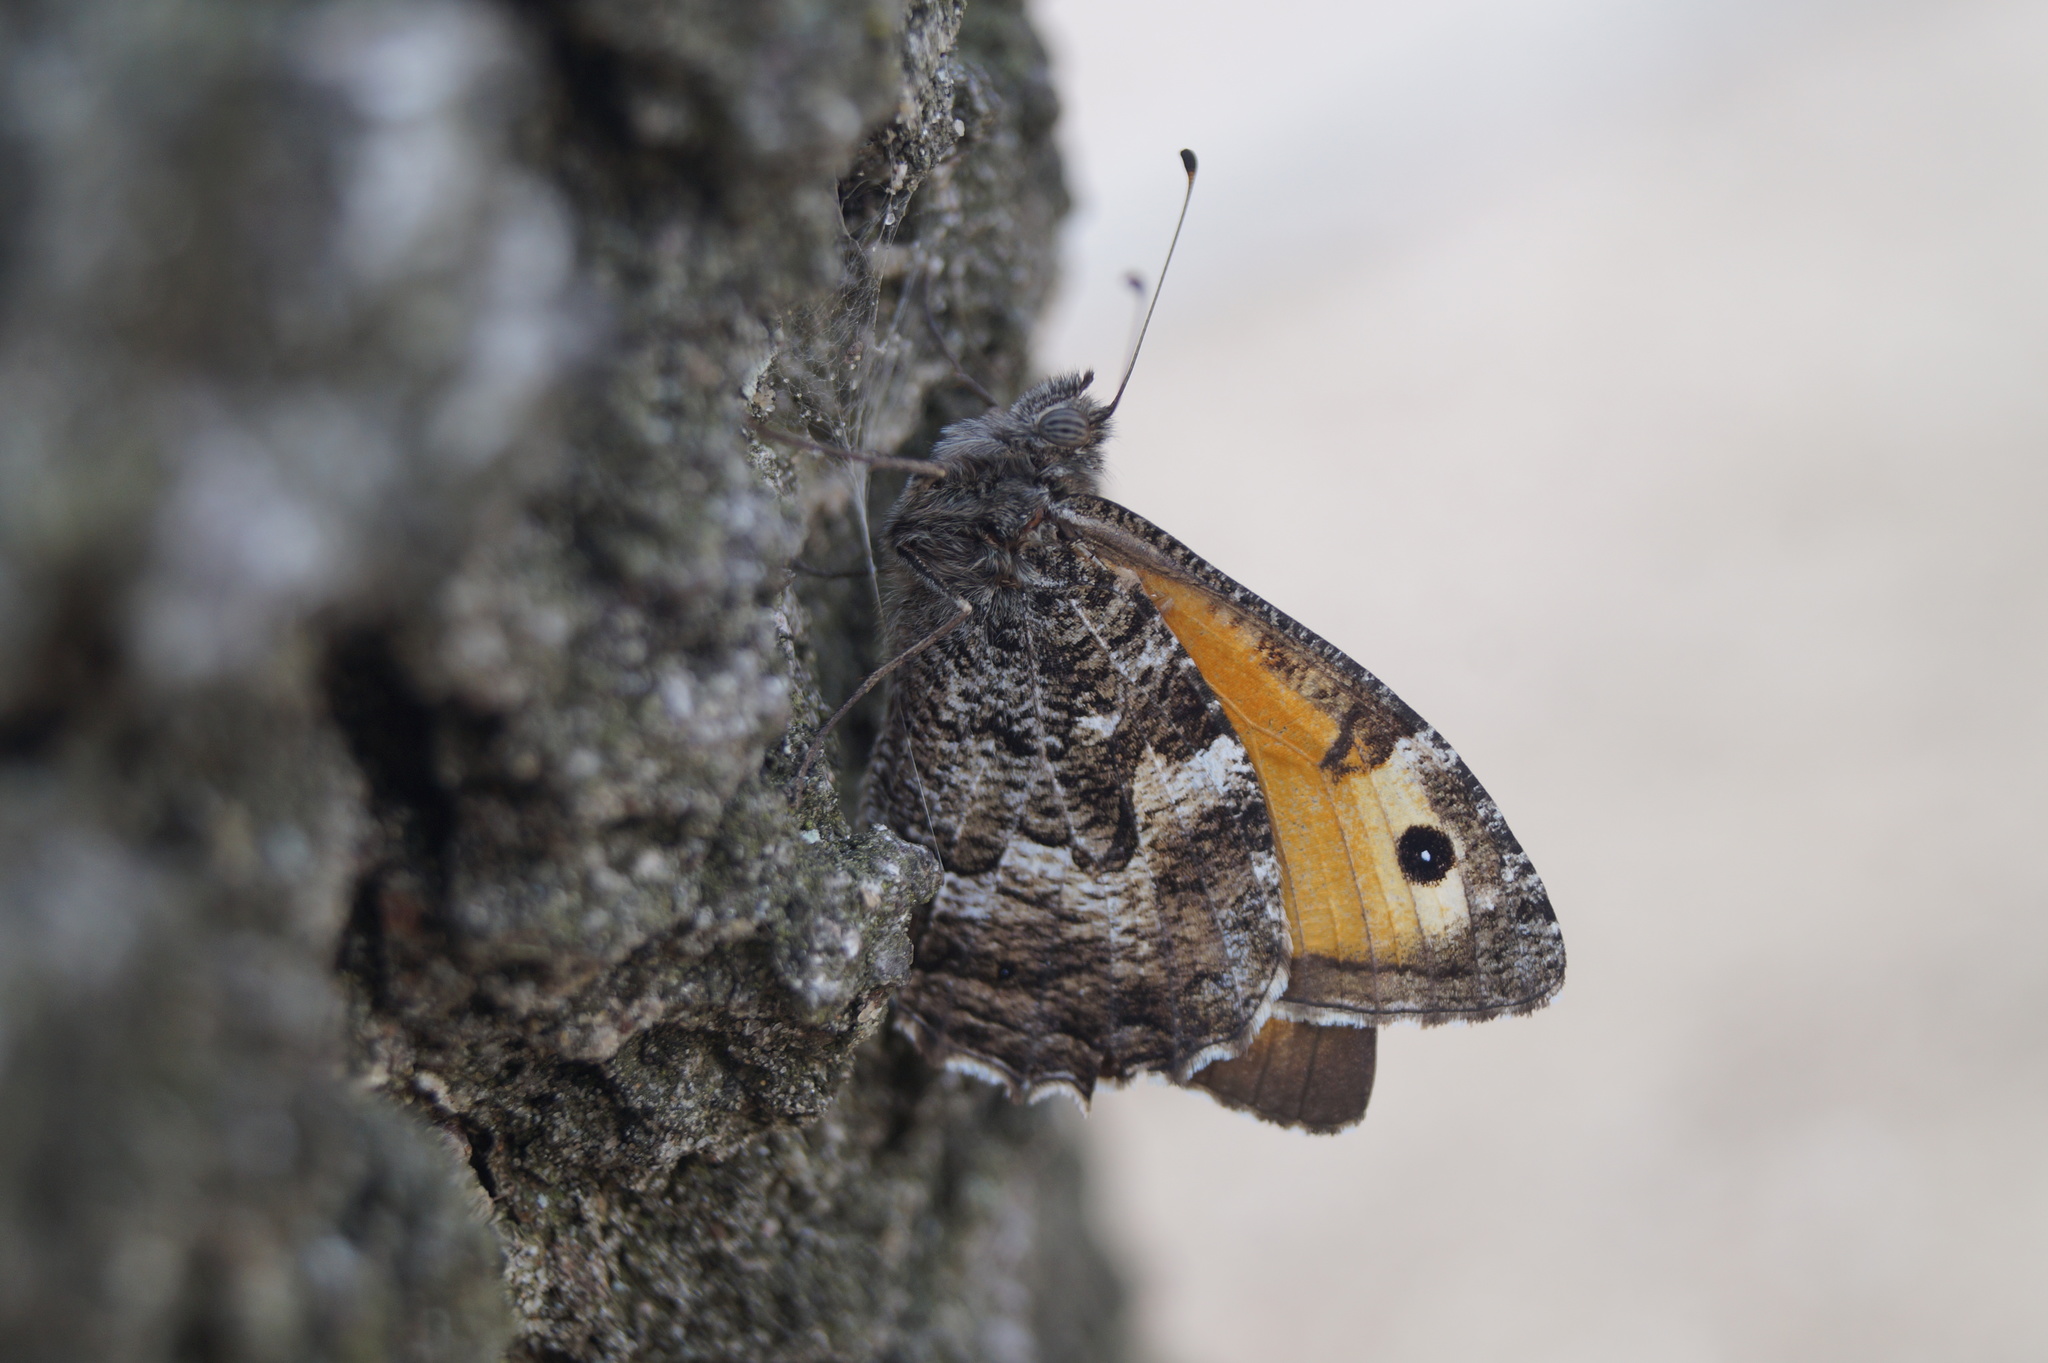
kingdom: Animalia
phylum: Arthropoda
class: Insecta
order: Lepidoptera
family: Nymphalidae
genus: Hipparchia
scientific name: Hipparchia semele
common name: Grayling
